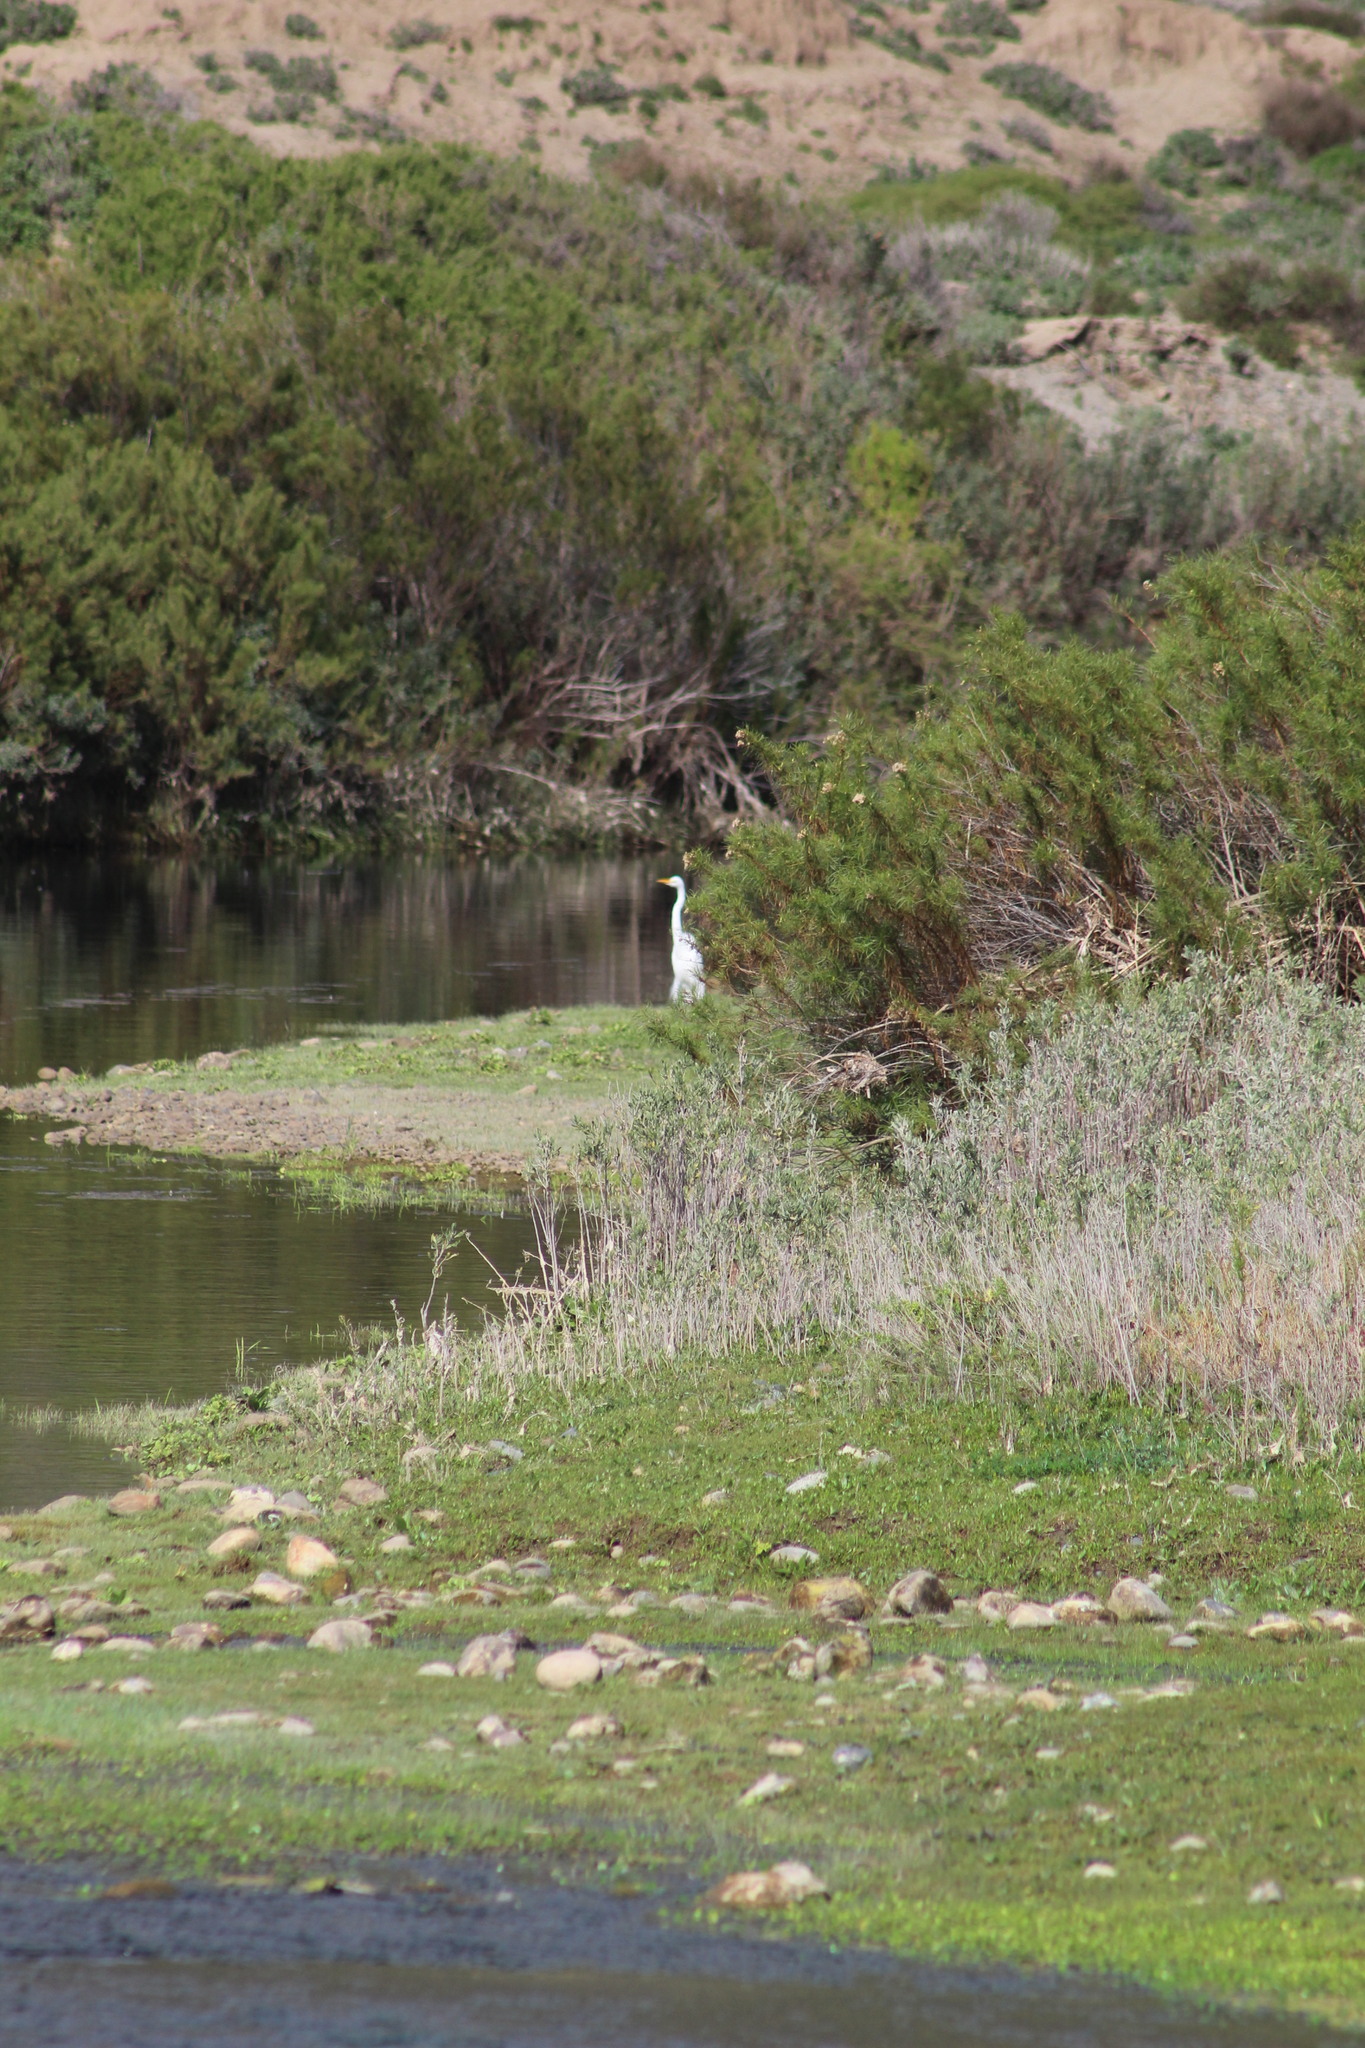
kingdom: Animalia
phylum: Chordata
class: Aves
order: Pelecaniformes
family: Ardeidae
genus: Ardea
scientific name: Ardea alba
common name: Great egret
